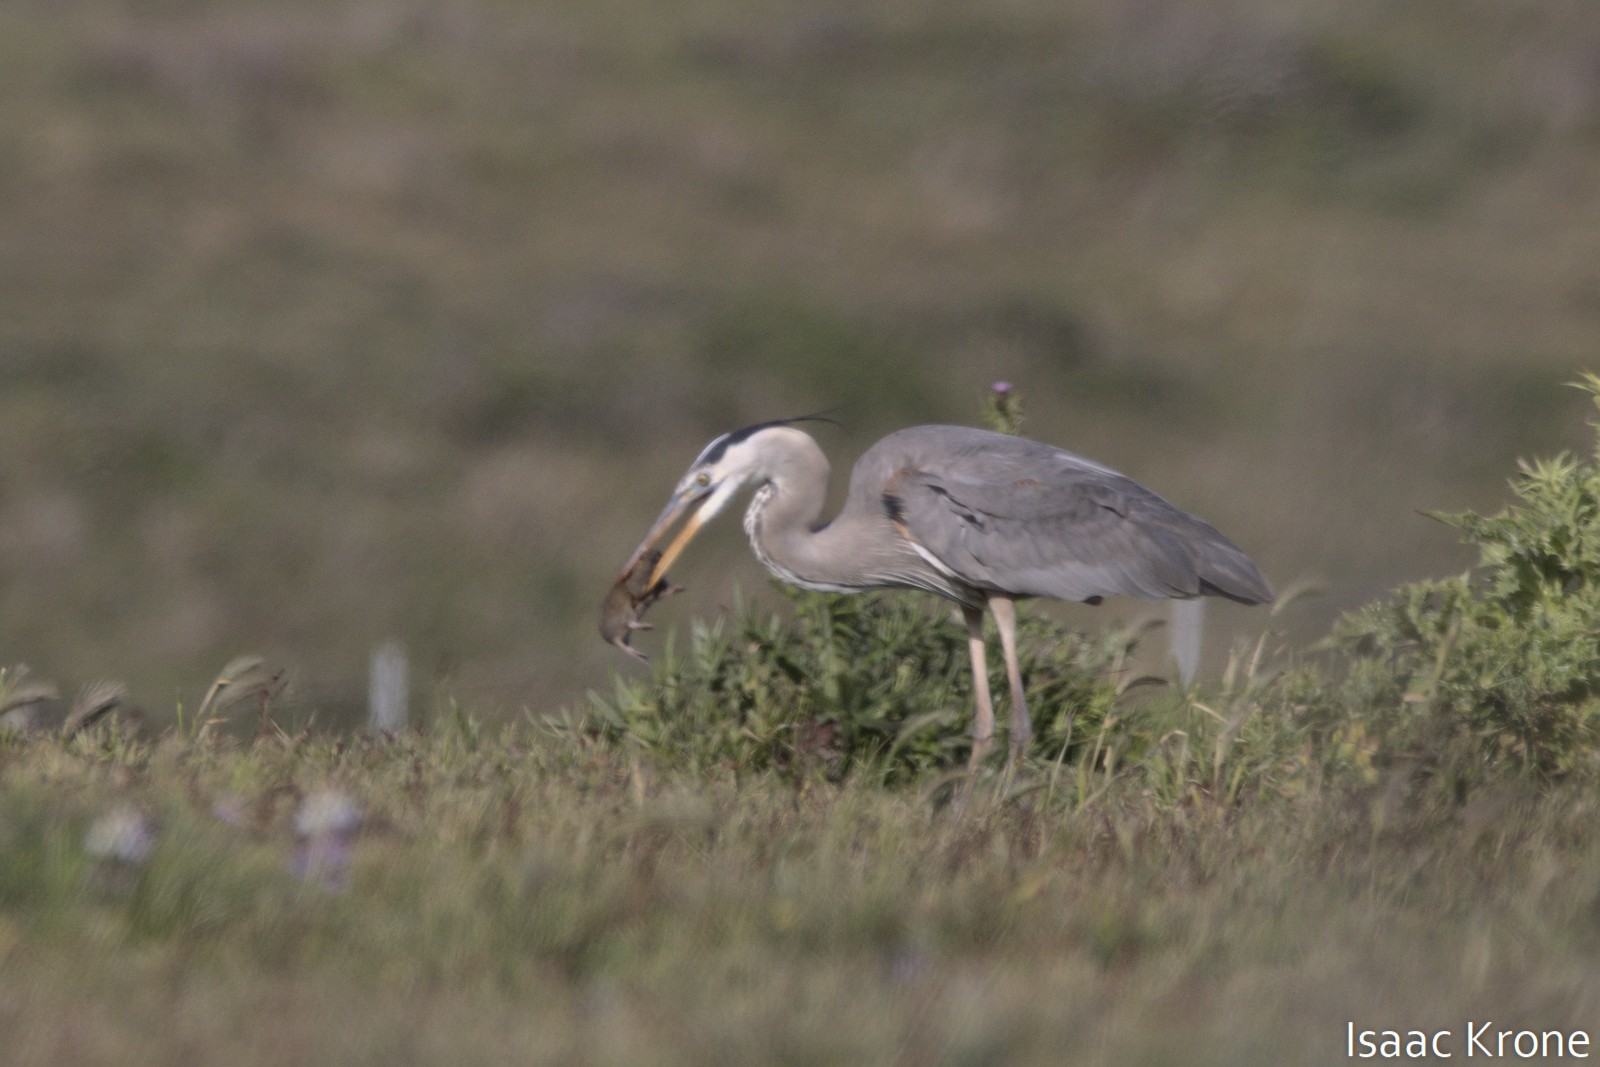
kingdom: Animalia
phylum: Chordata
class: Aves
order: Pelecaniformes
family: Ardeidae
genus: Ardea
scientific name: Ardea herodias
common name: Great blue heron
